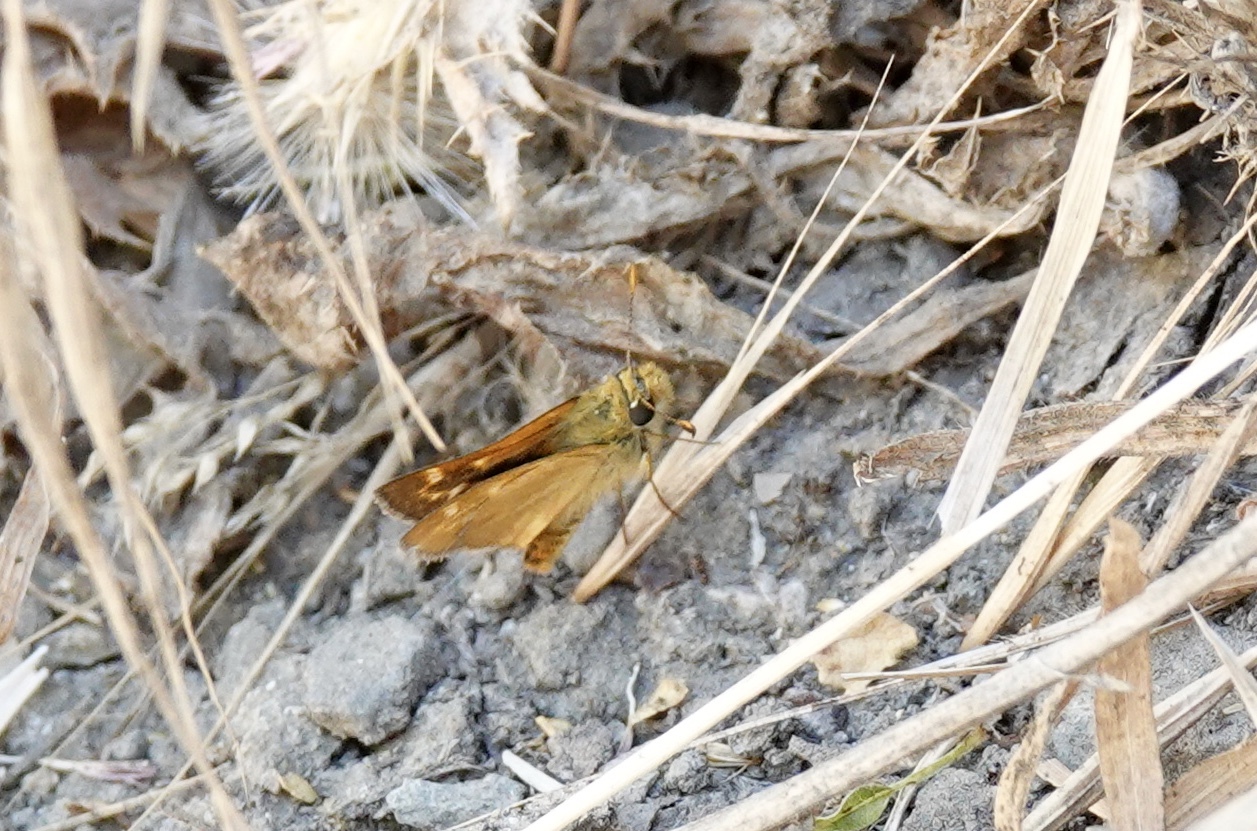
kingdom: Animalia
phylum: Arthropoda
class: Insecta
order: Lepidoptera
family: Hesperiidae
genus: Ochlodes
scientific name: Ochlodes agricola
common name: Rural skipper
